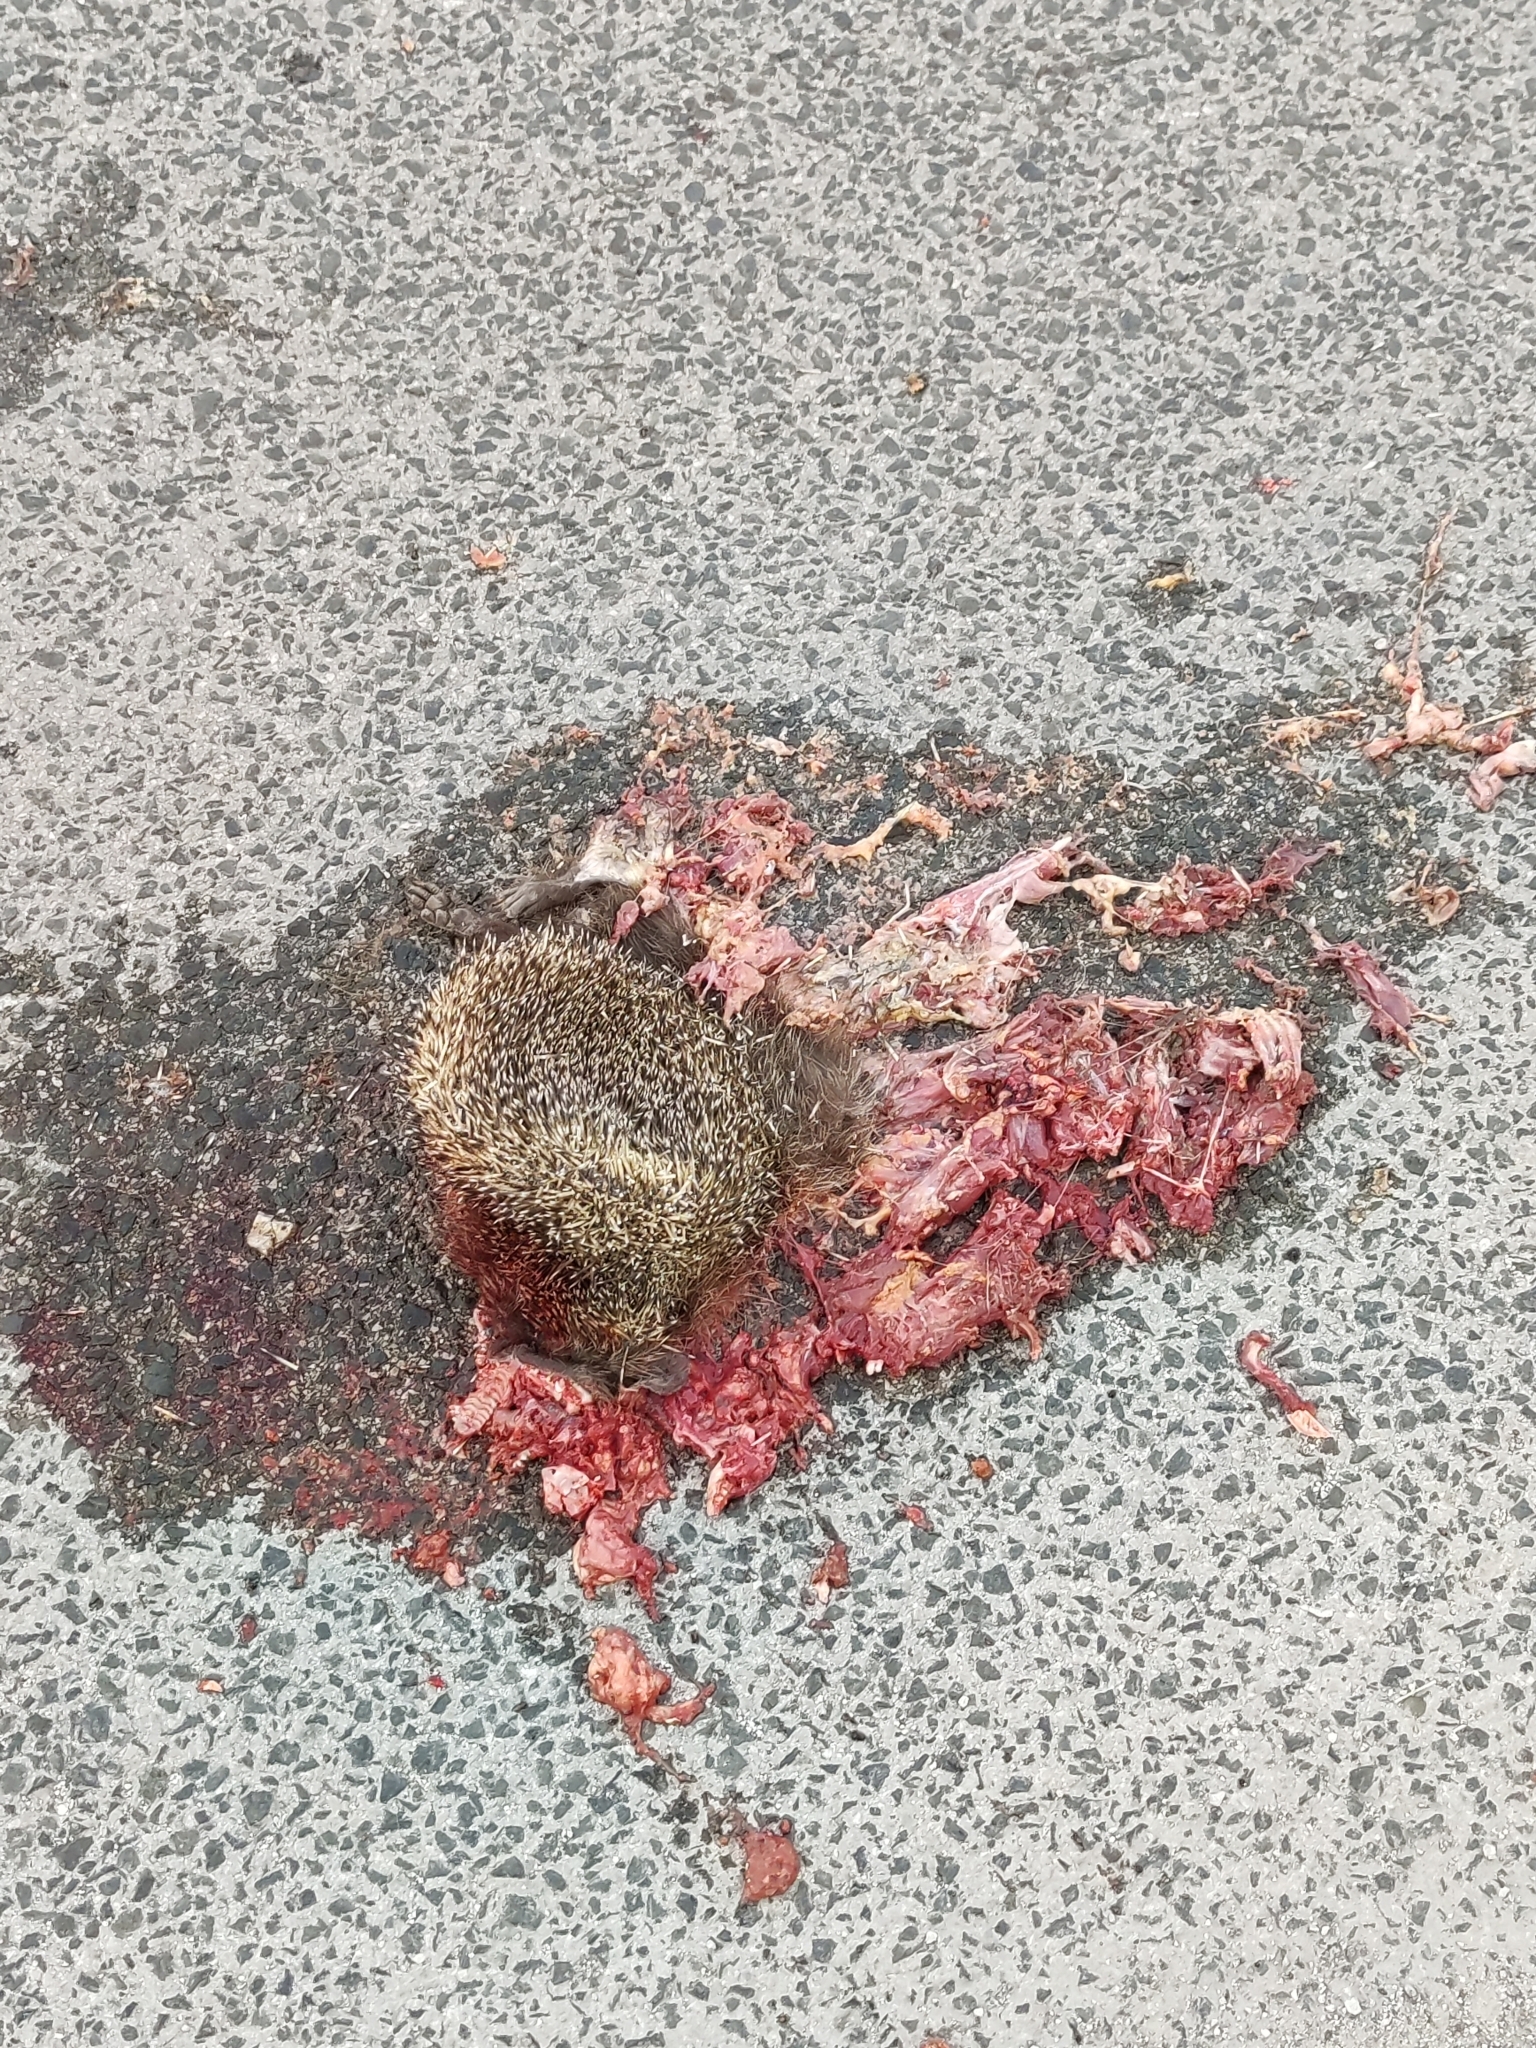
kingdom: Animalia
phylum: Chordata
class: Mammalia
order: Erinaceomorpha
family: Erinaceidae
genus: Erinaceus
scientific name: Erinaceus roumanicus
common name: Northern white-breasted hedgehog
